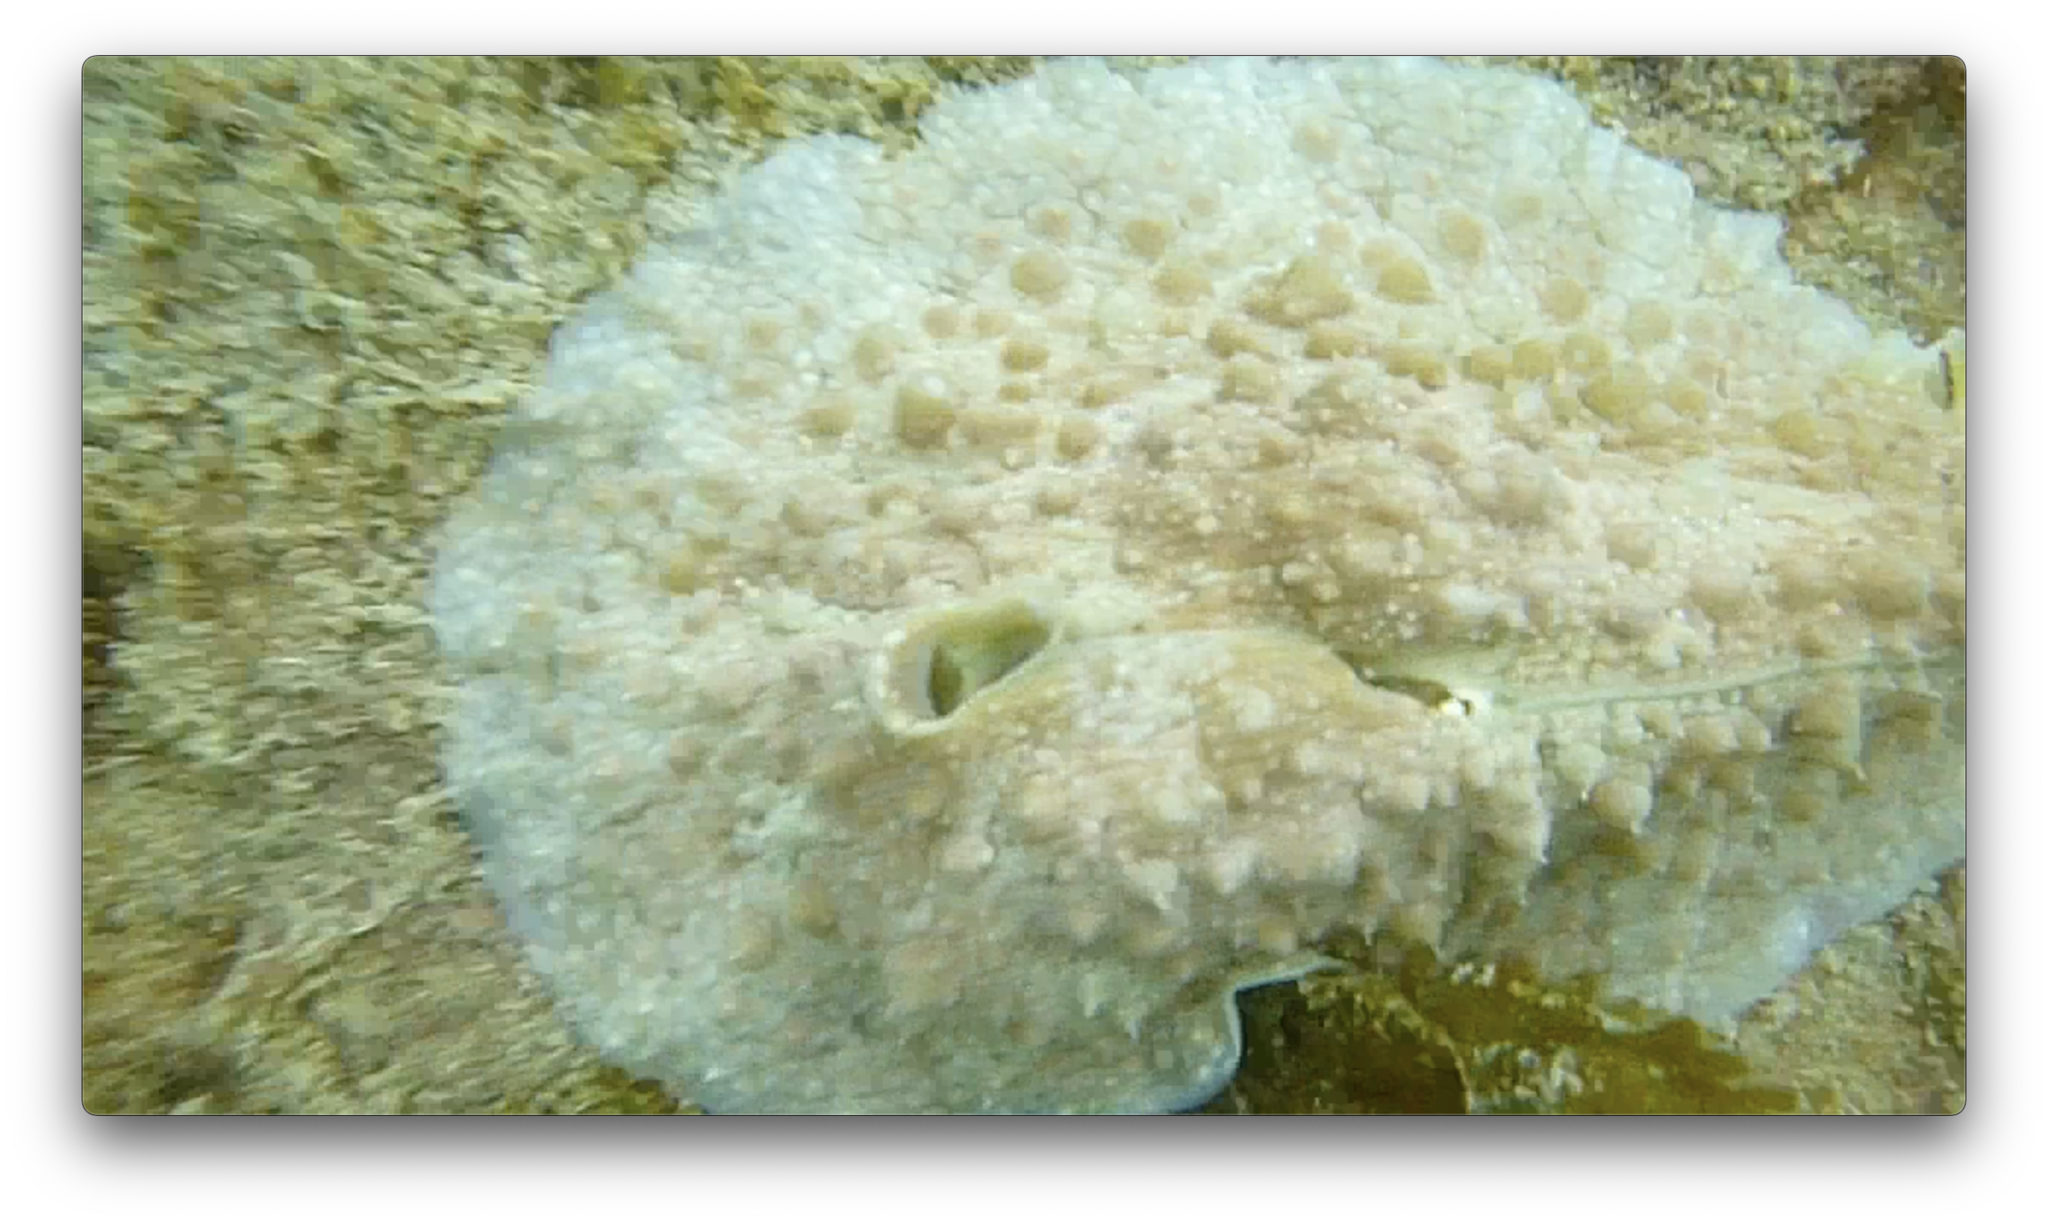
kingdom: Animalia
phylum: Mollusca
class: Gastropoda
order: Aplysiida
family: Aplysiidae
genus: Dolabrifera
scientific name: Dolabrifera brazieri
